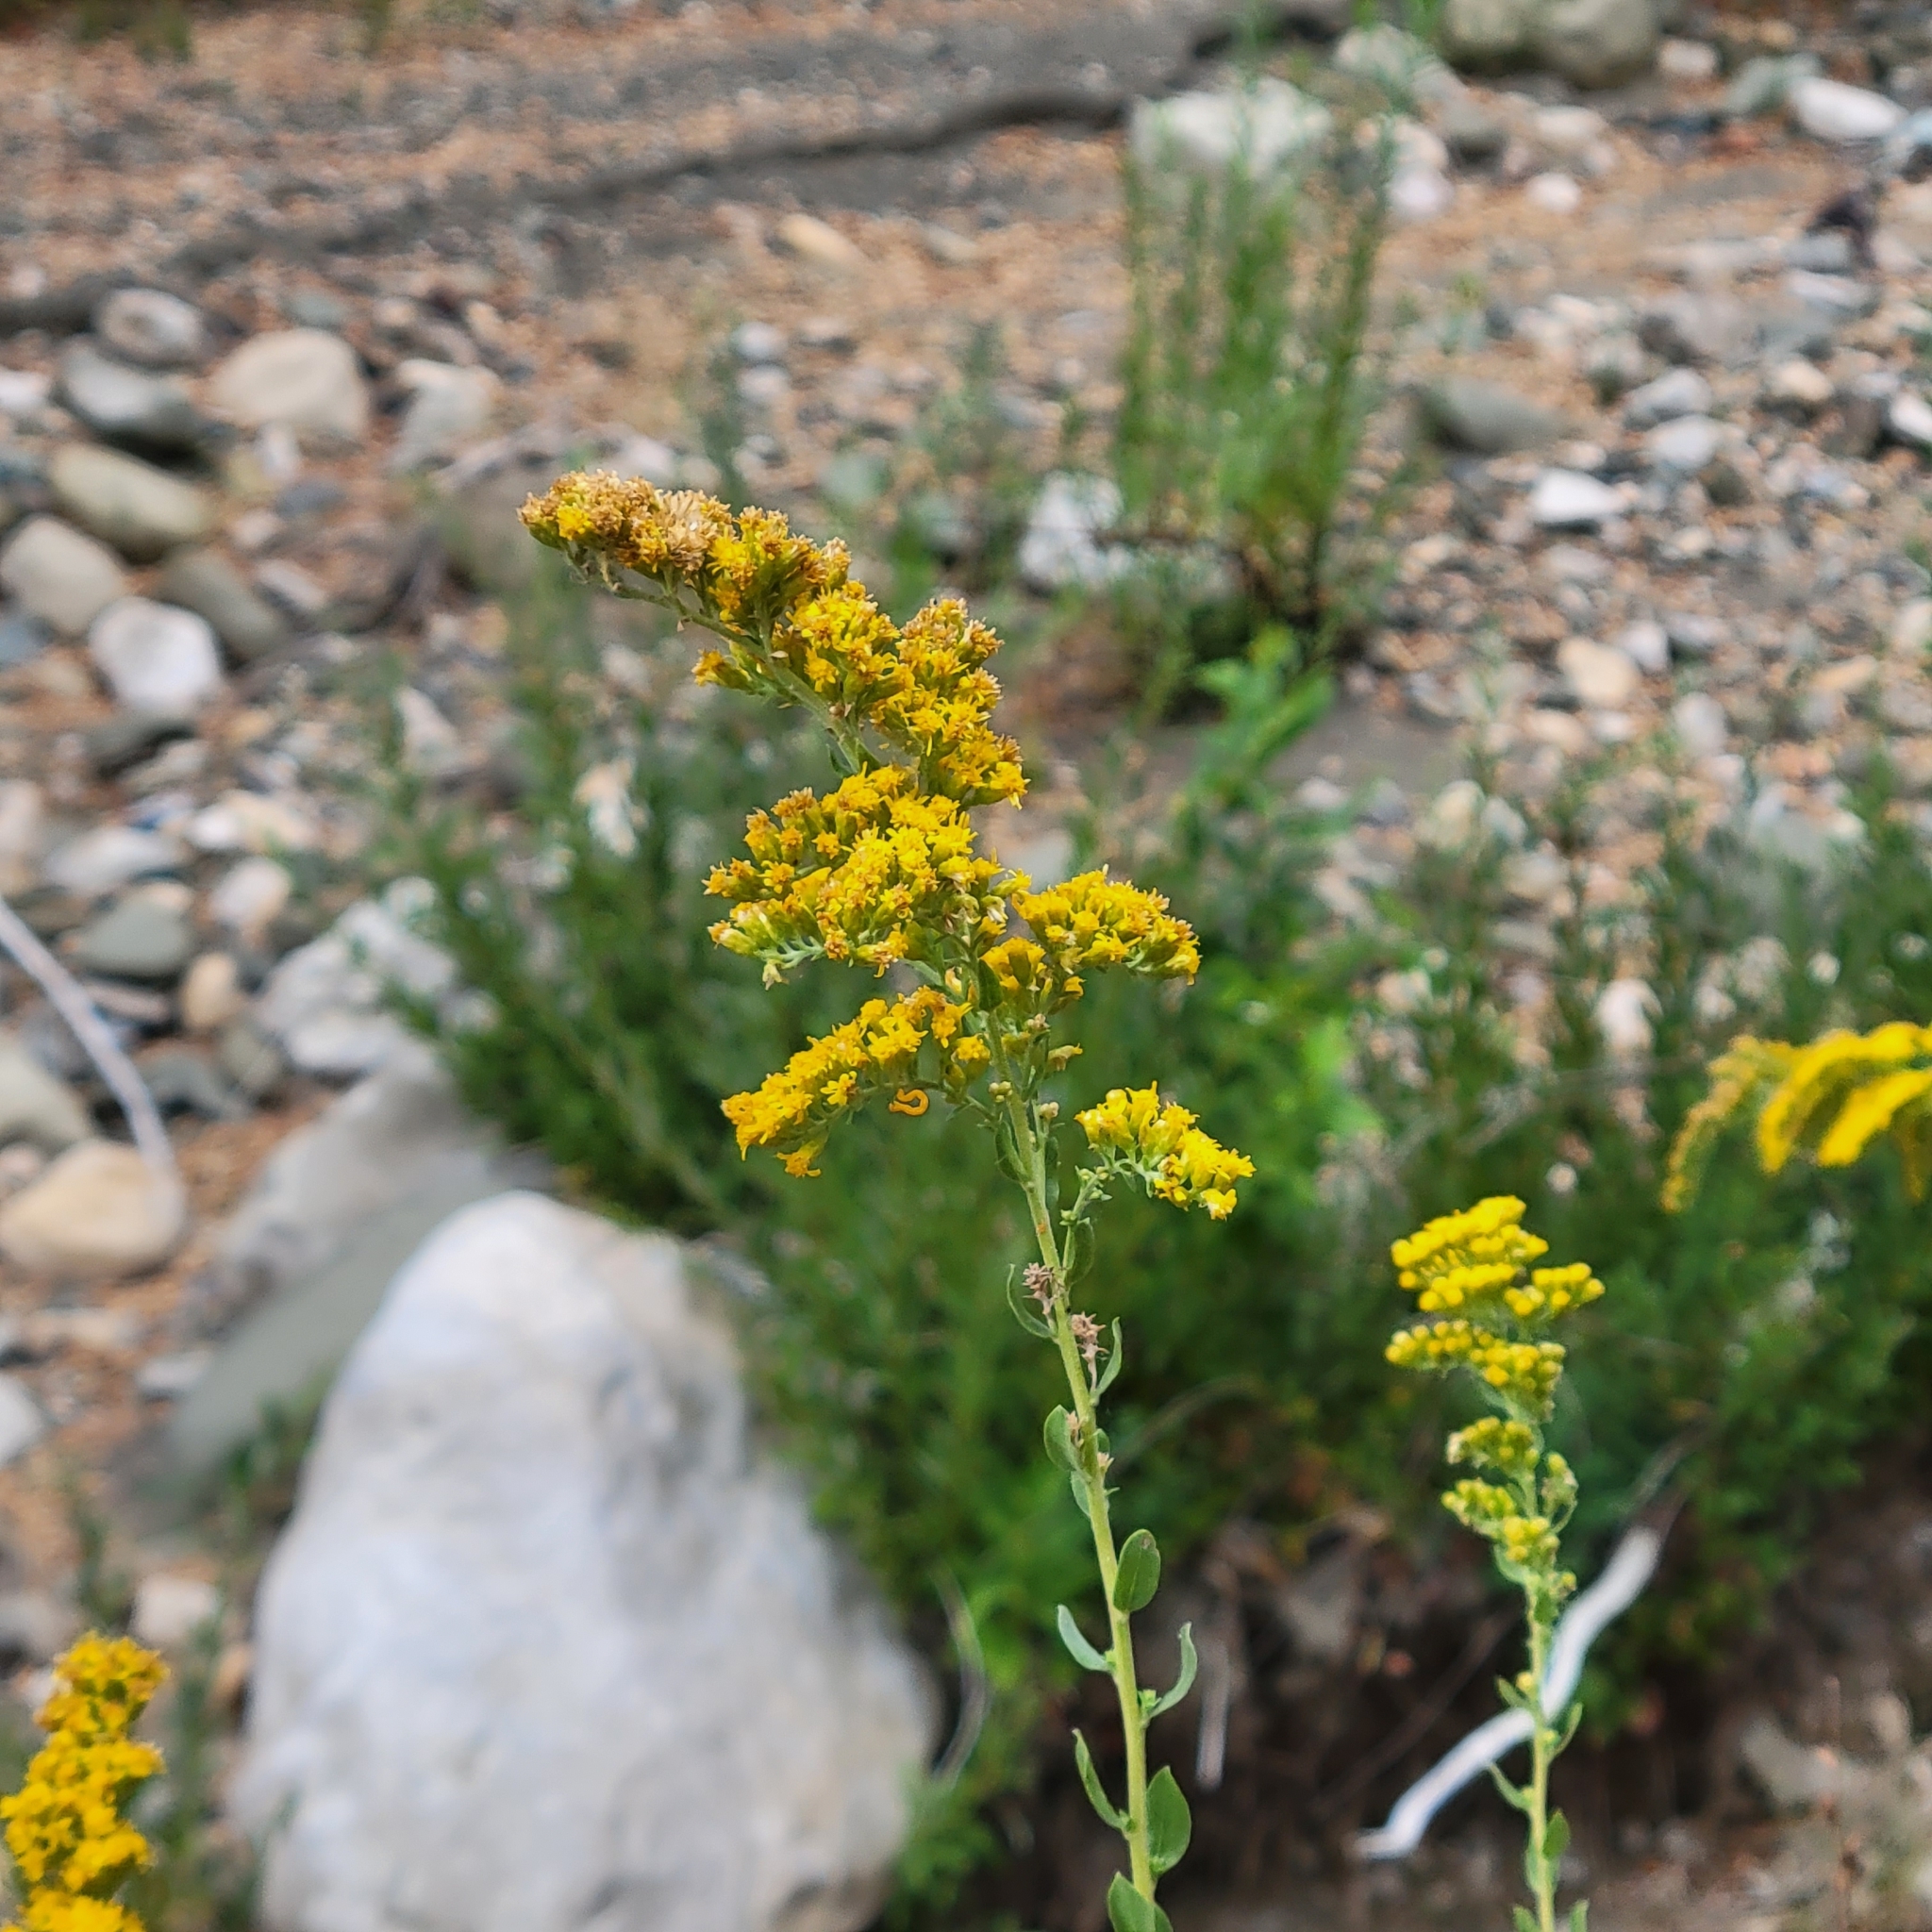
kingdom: Plantae
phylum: Tracheophyta
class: Magnoliopsida
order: Asterales
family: Asteraceae
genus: Solidago
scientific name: Solidago velutina
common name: Three-nerve goldenrod
